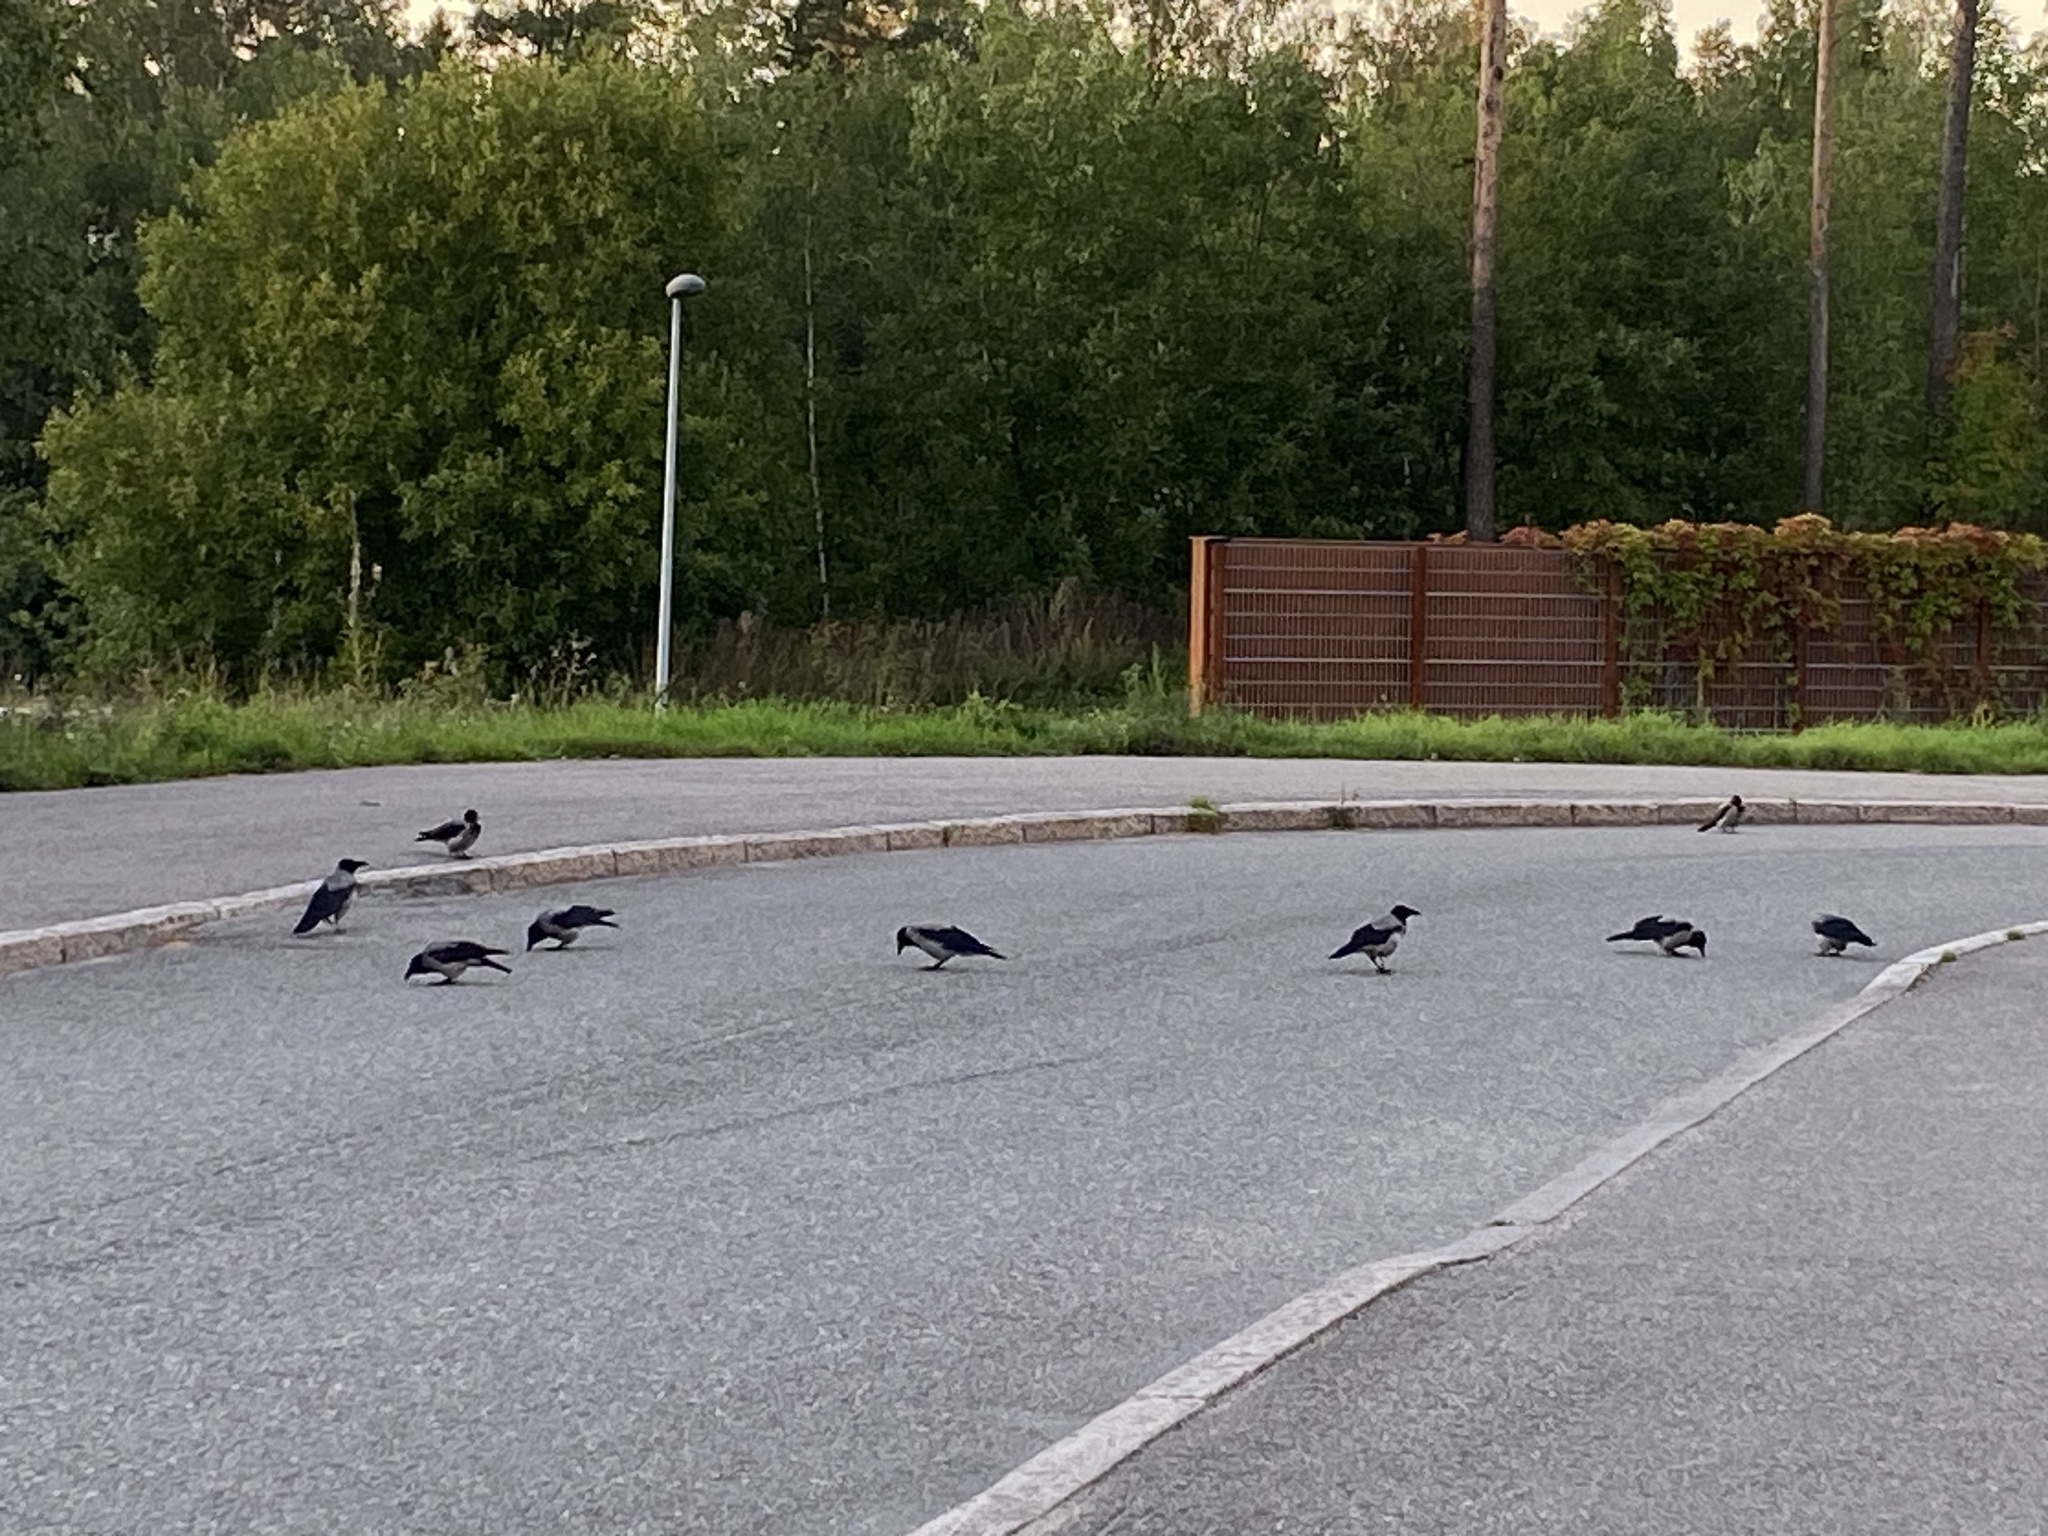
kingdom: Animalia
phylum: Chordata
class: Aves
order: Passeriformes
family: Corvidae
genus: Corvus
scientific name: Corvus cornix
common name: Hooded crow
